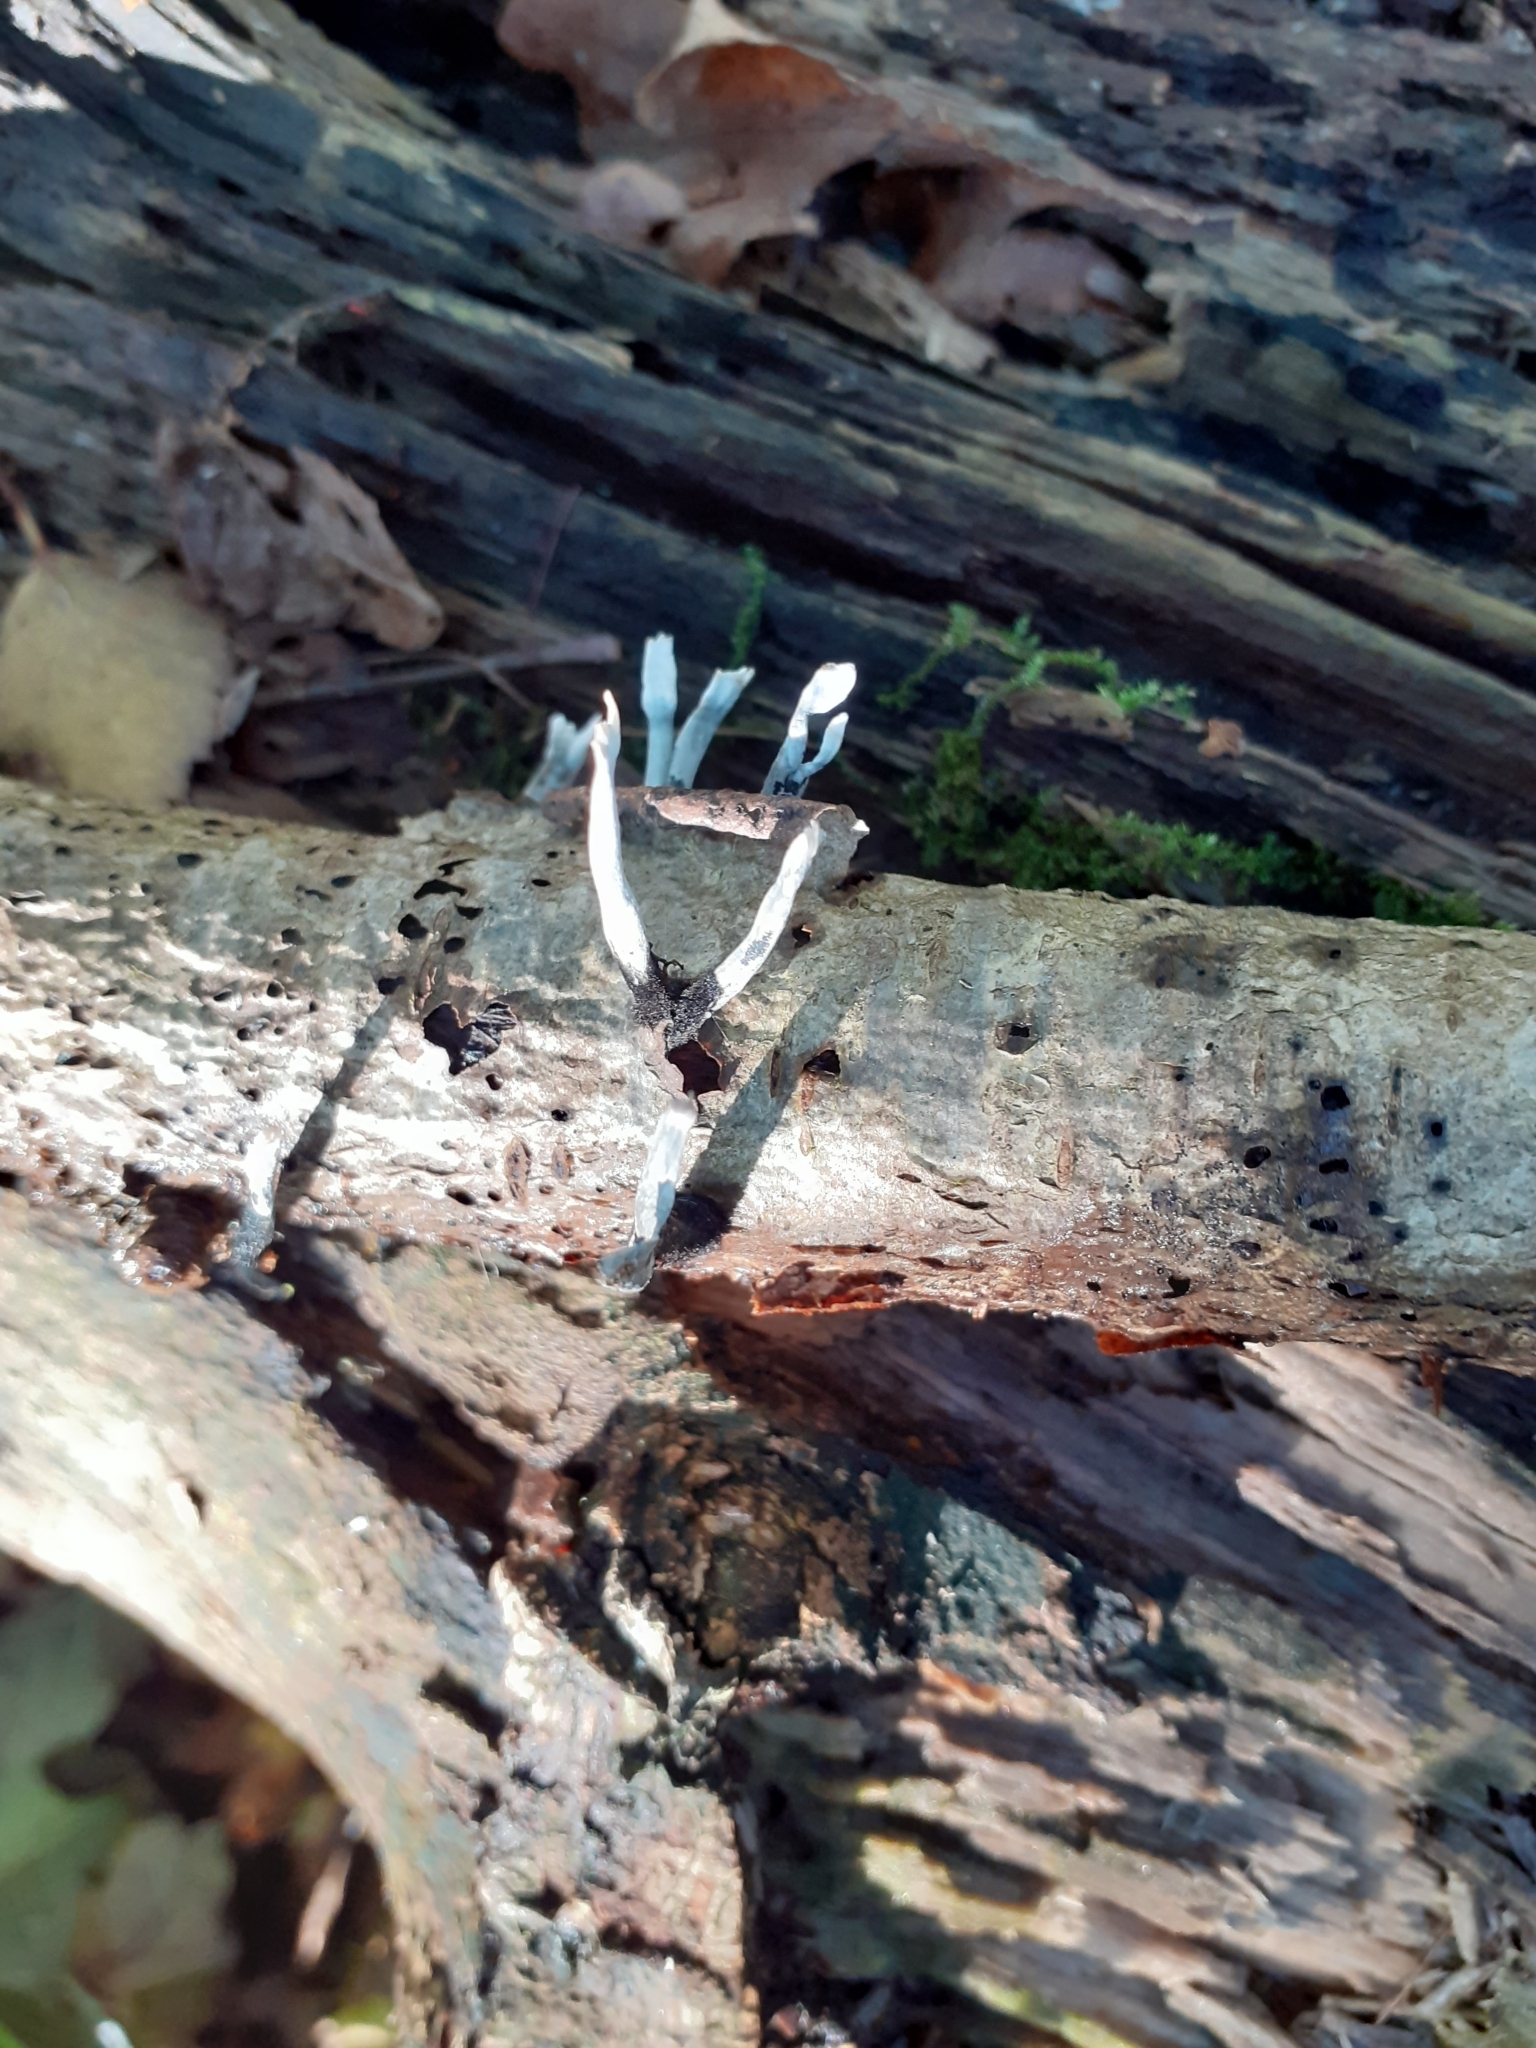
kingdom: Fungi
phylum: Ascomycota
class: Sordariomycetes
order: Xylariales
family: Xylariaceae
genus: Xylaria
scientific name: Xylaria hypoxylon
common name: Candle-snuff fungus
